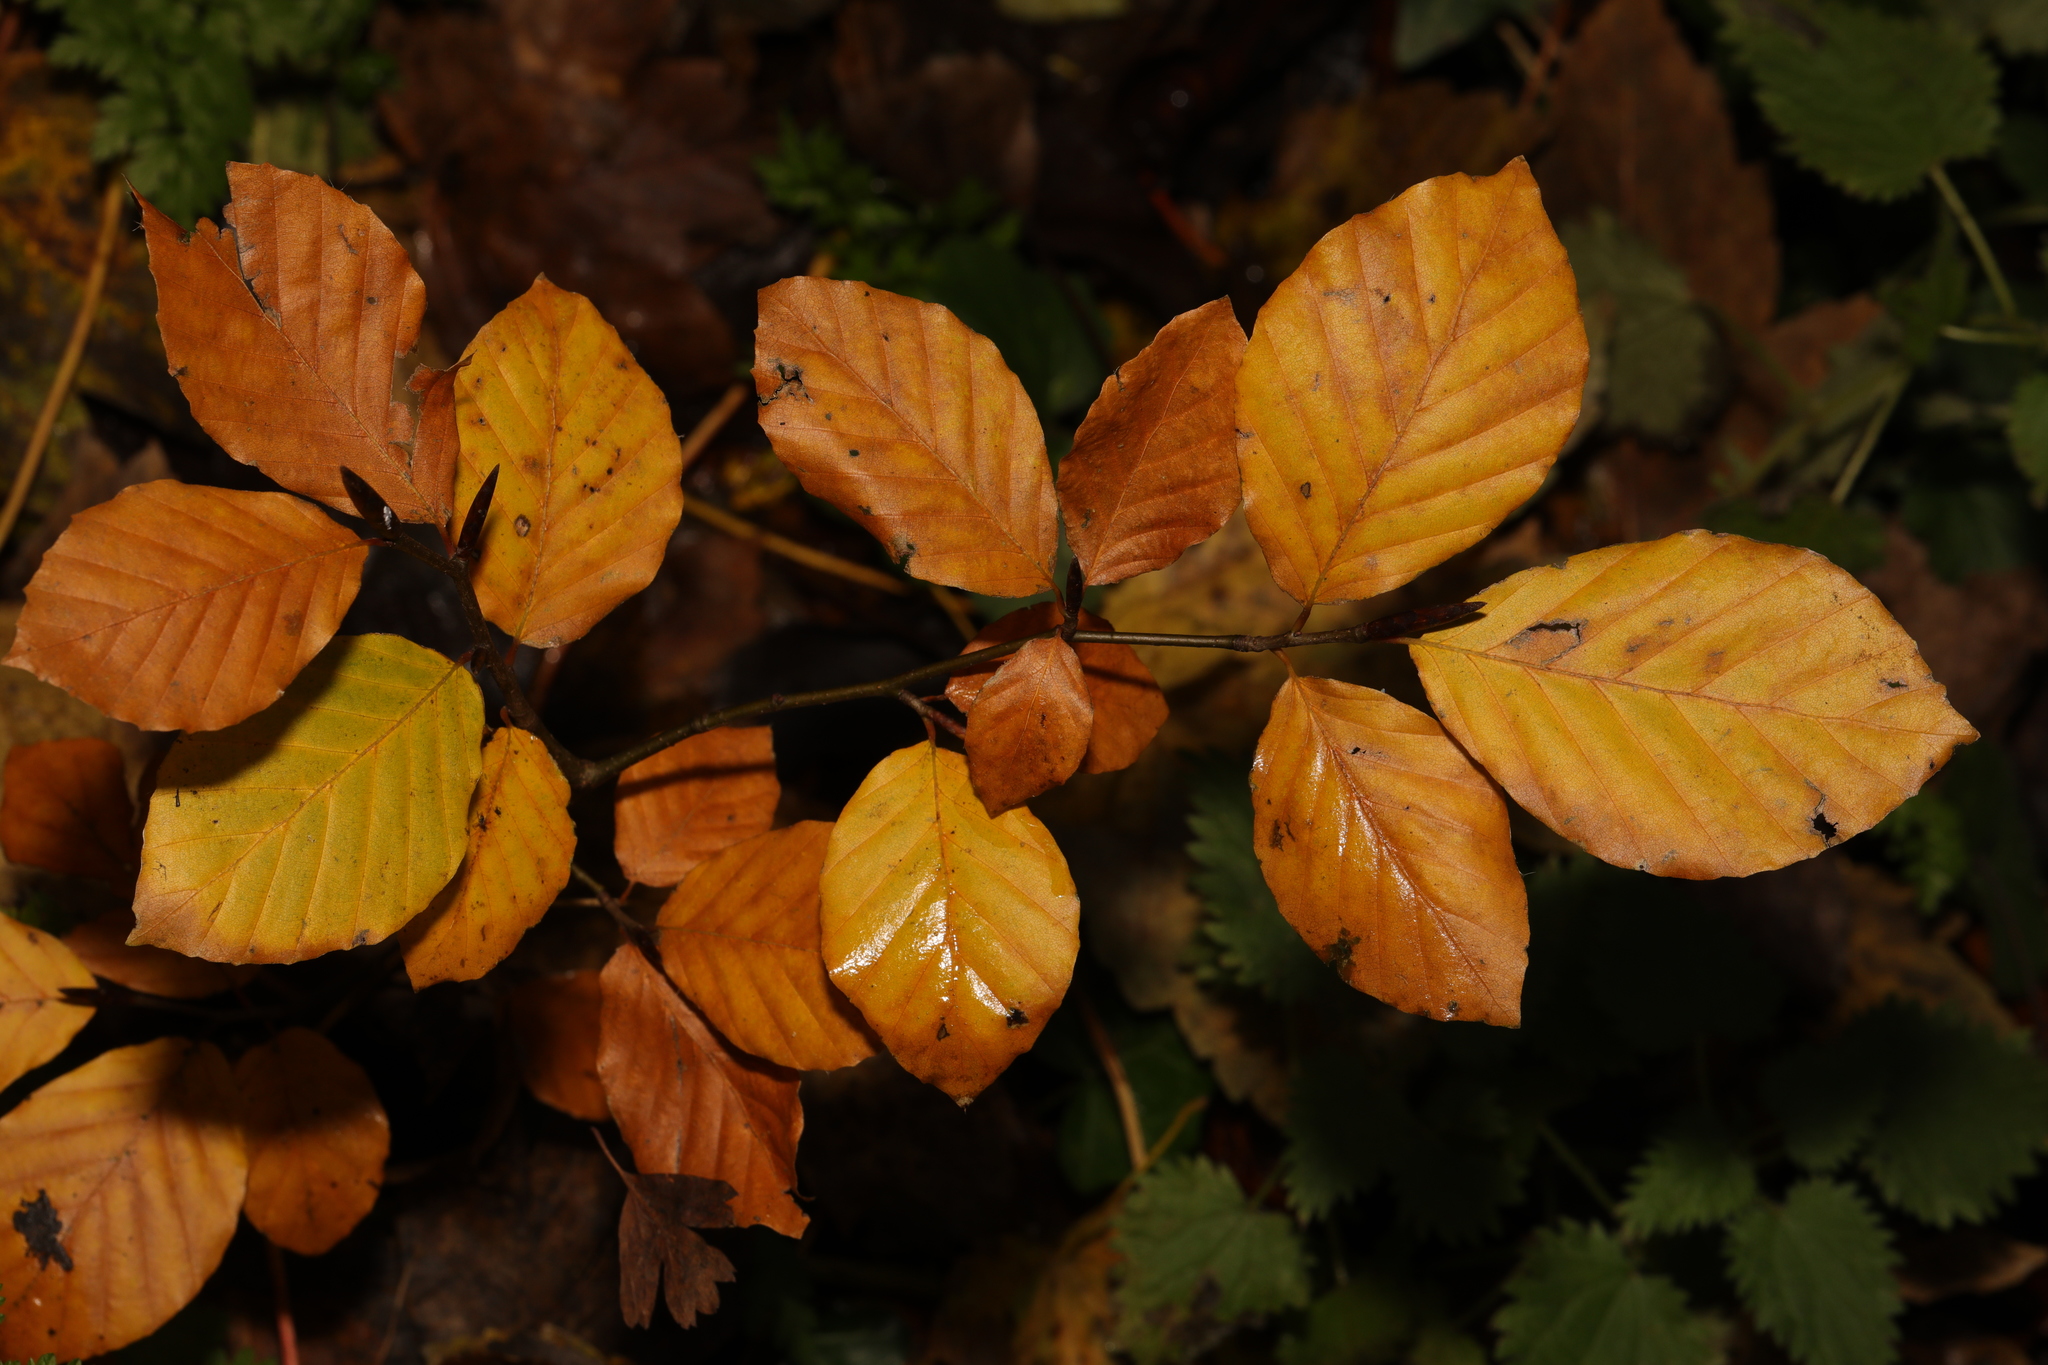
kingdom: Plantae
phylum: Tracheophyta
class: Magnoliopsida
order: Fagales
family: Fagaceae
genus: Fagus
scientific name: Fagus sylvatica
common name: Beech
